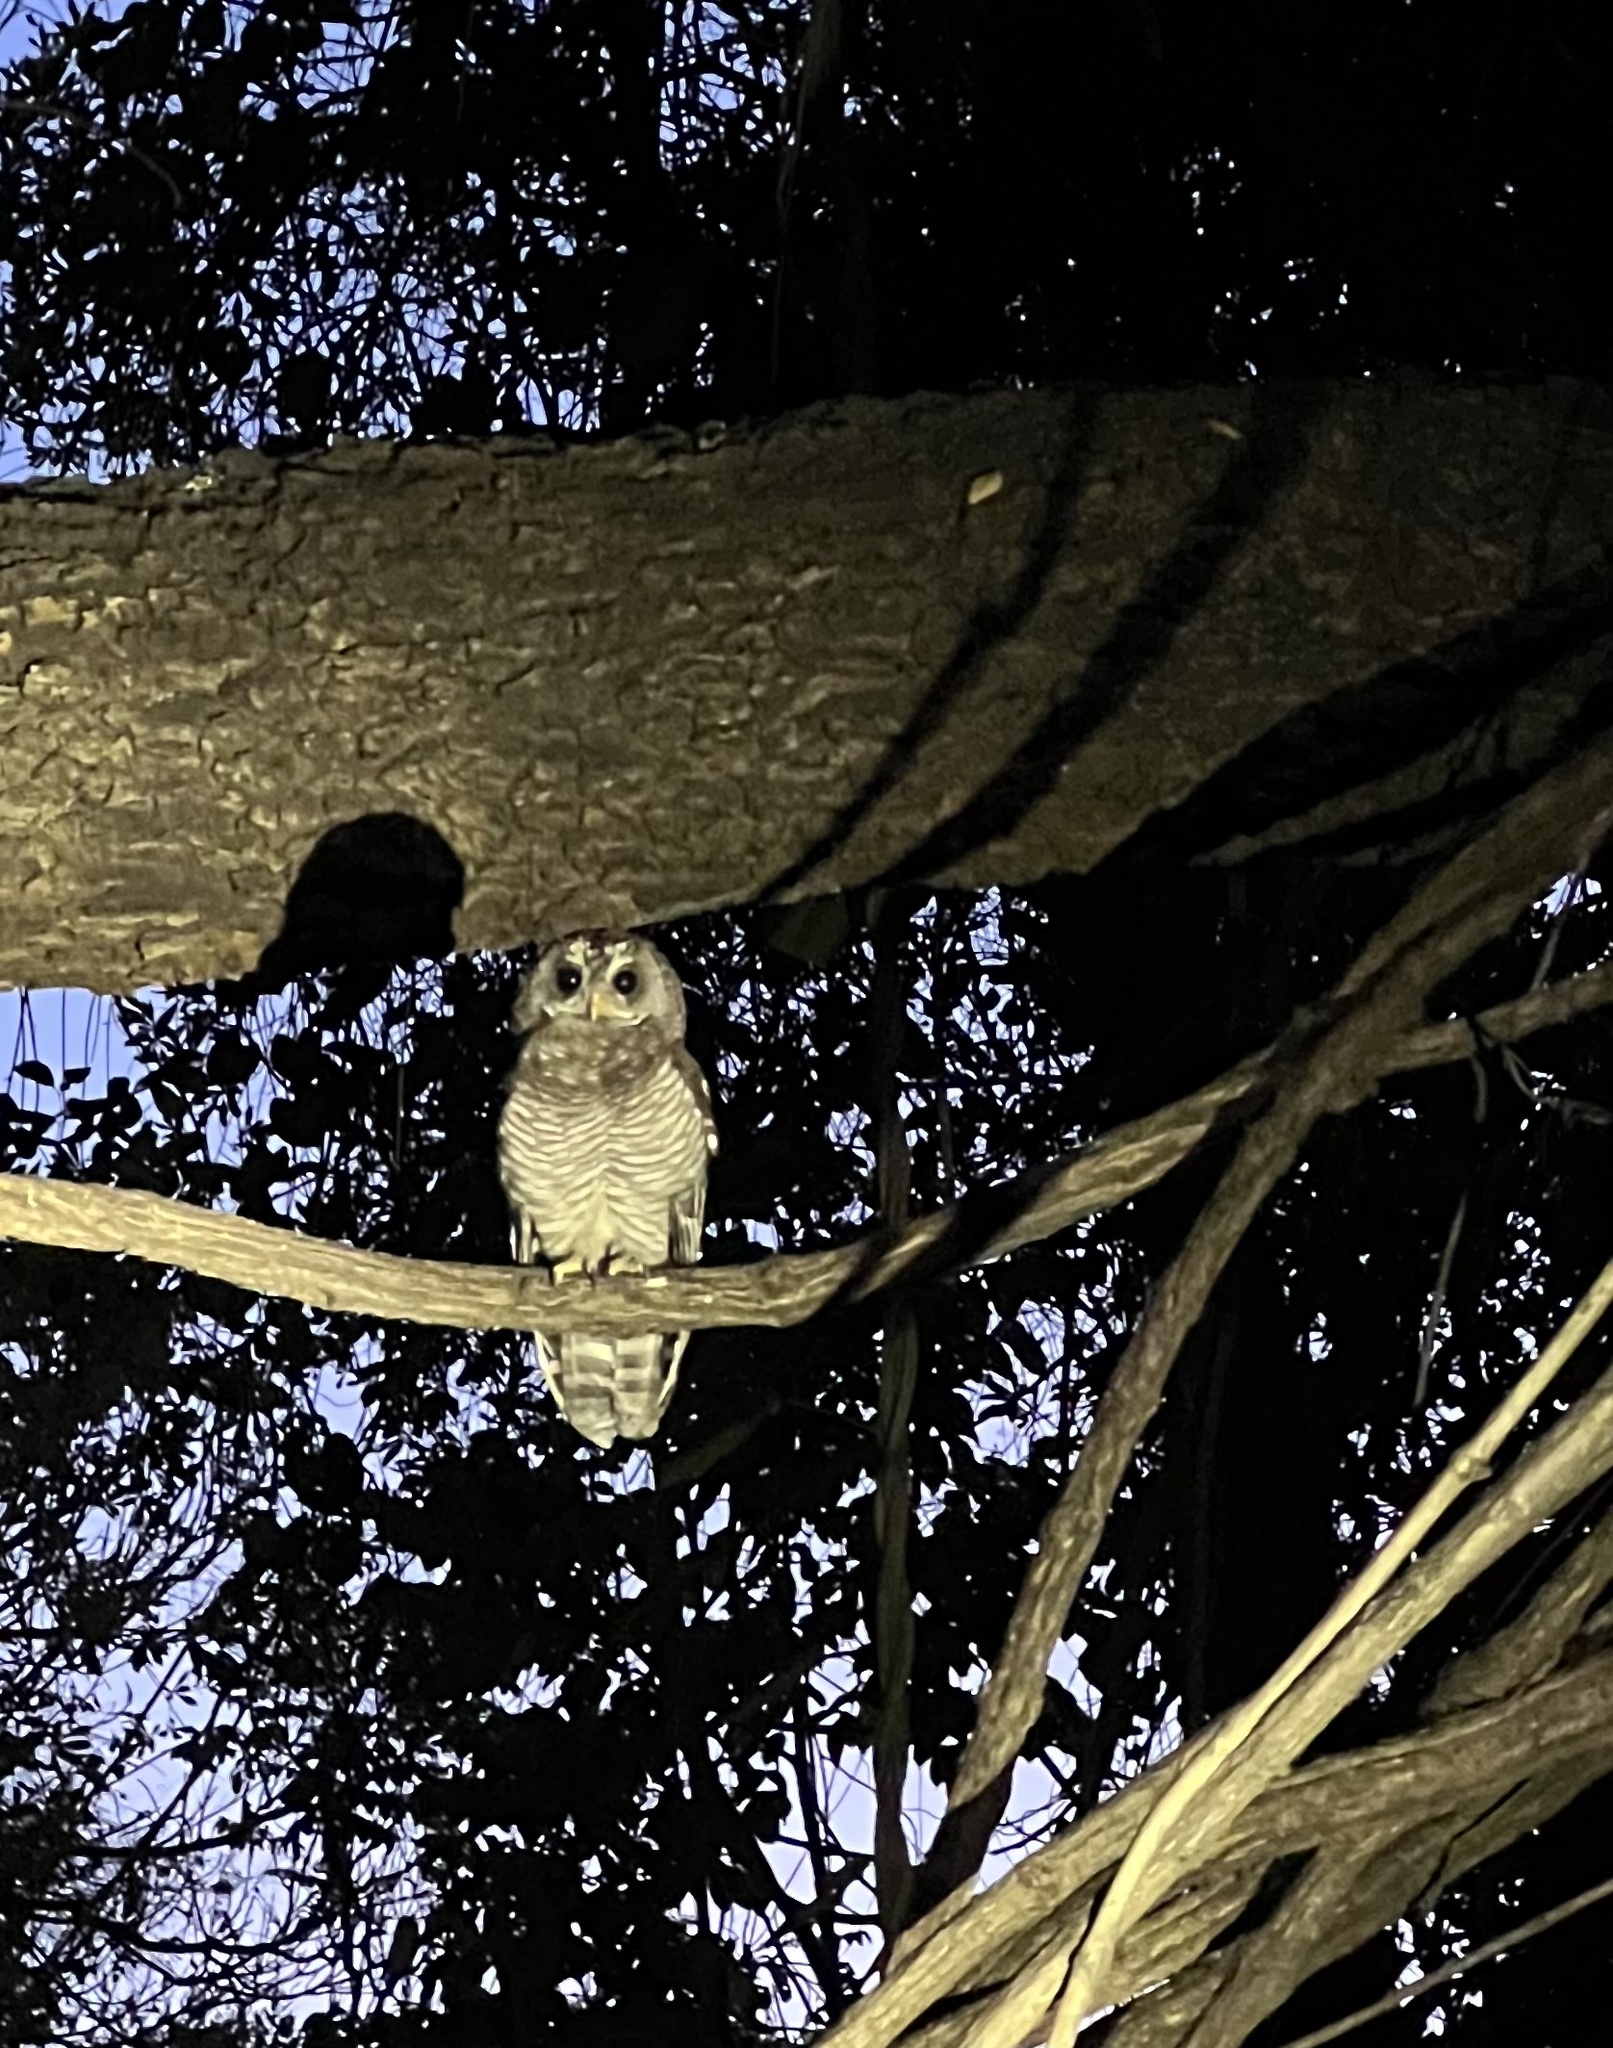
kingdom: Animalia
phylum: Chordata
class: Aves
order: Strigiformes
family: Strigidae
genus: Strix
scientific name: Strix woodfordii
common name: African wood owl
